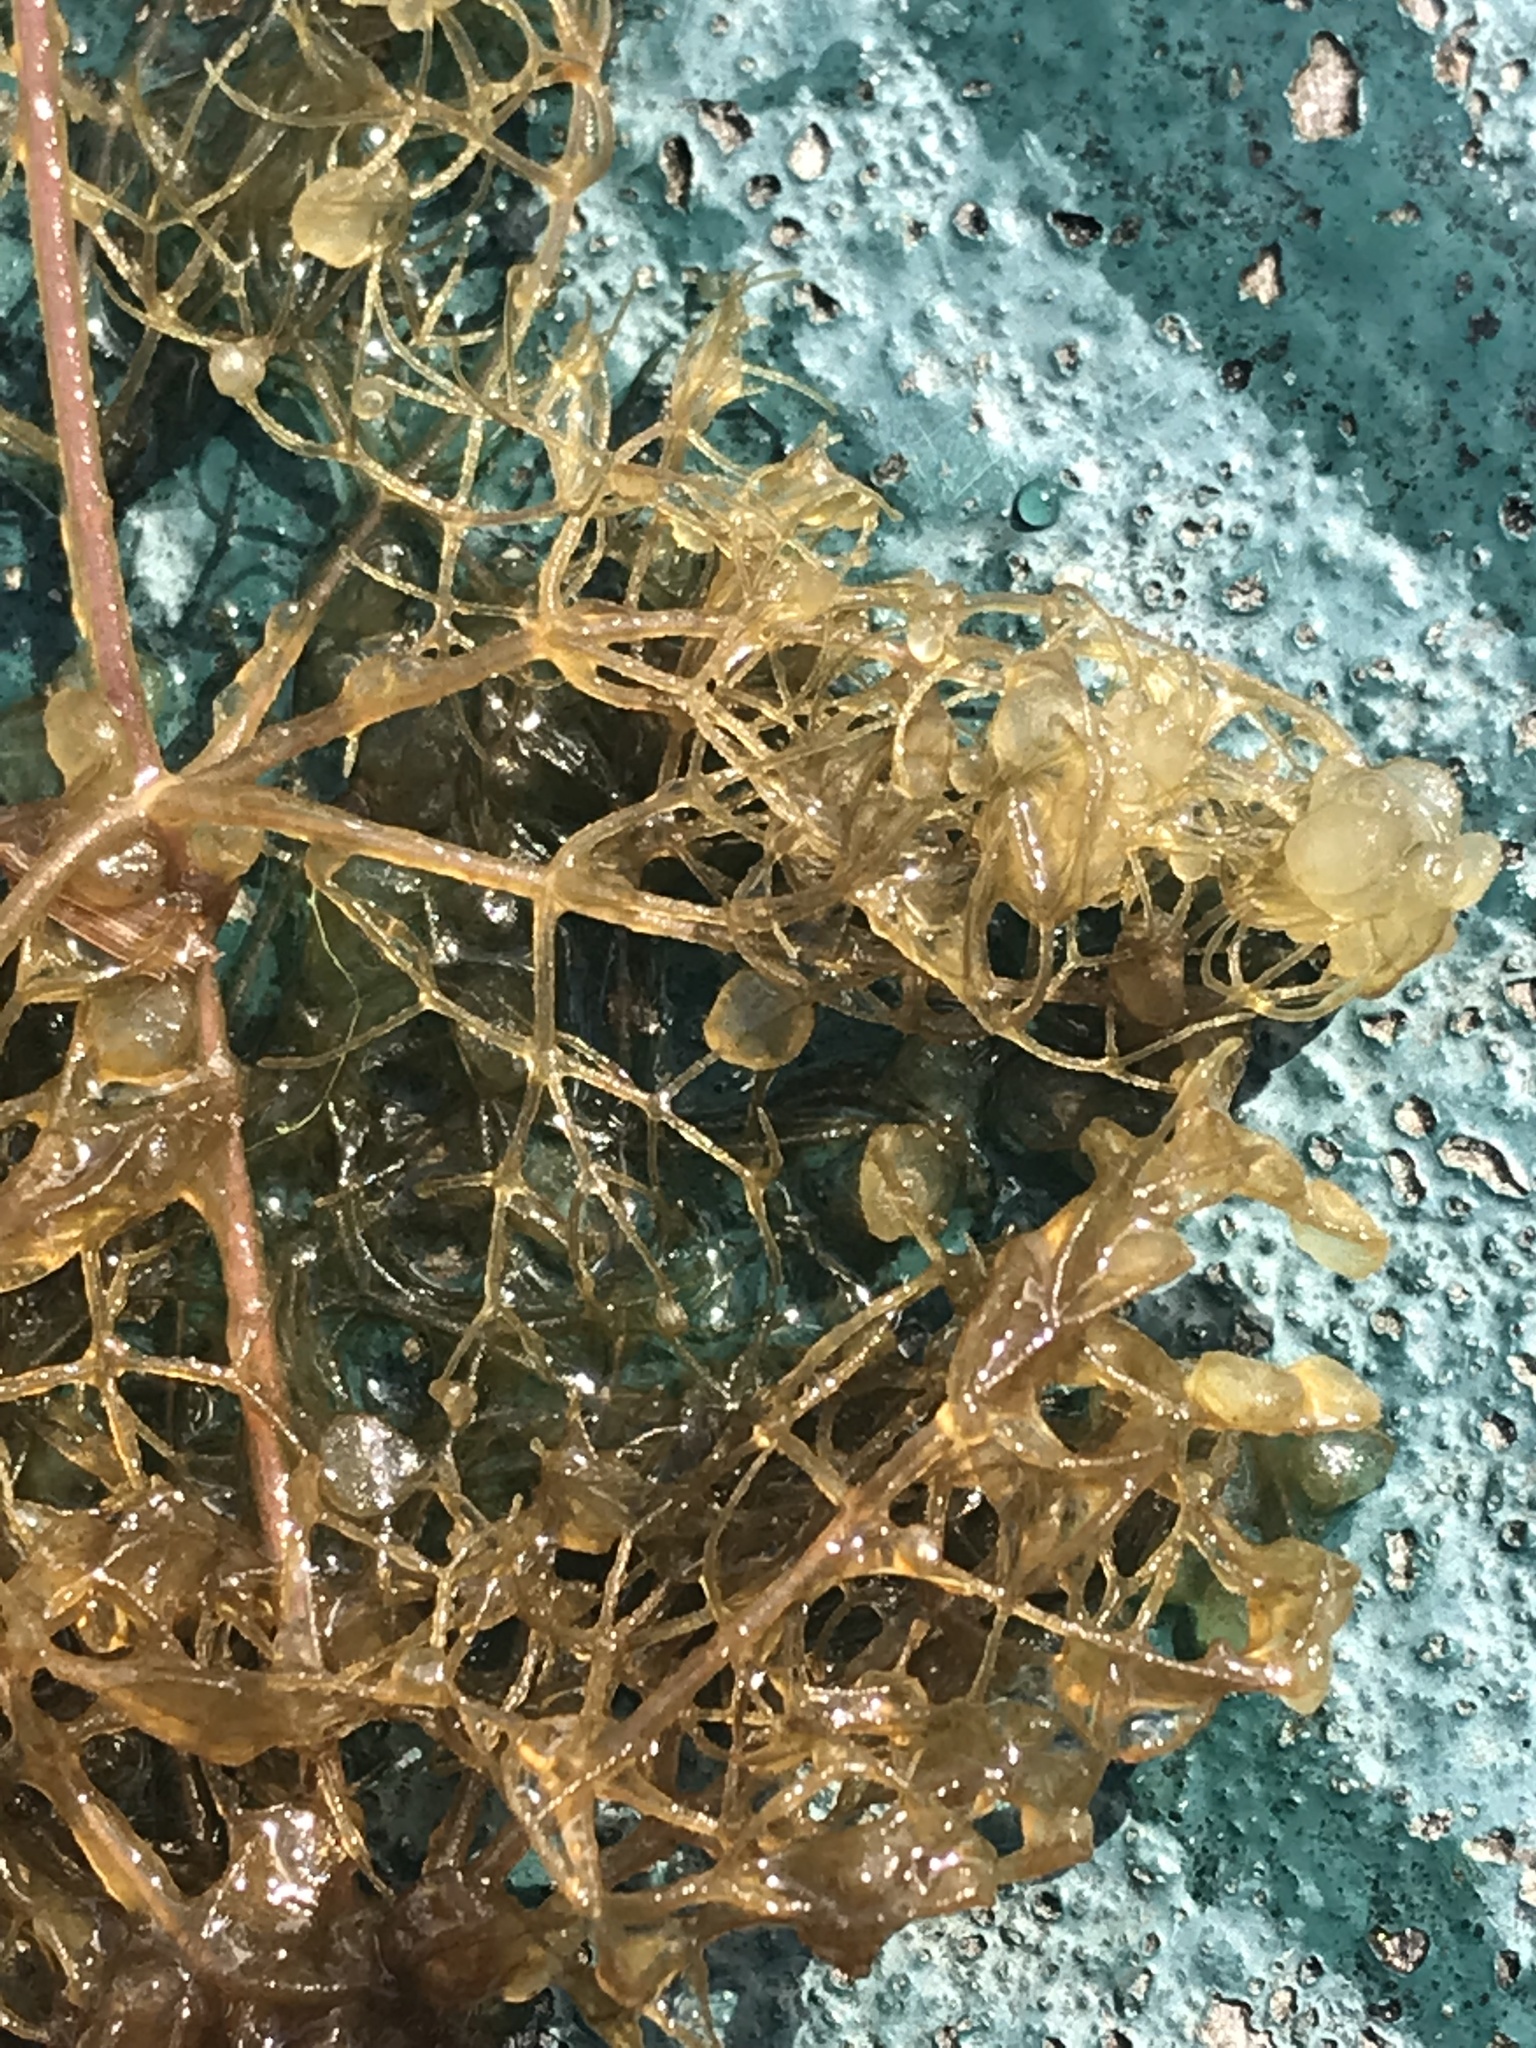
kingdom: Plantae
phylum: Tracheophyta
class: Magnoliopsida
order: Lamiales
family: Lentibulariaceae
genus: Utricularia
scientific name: Utricularia purpurea
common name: Eastern purple bladderwort
